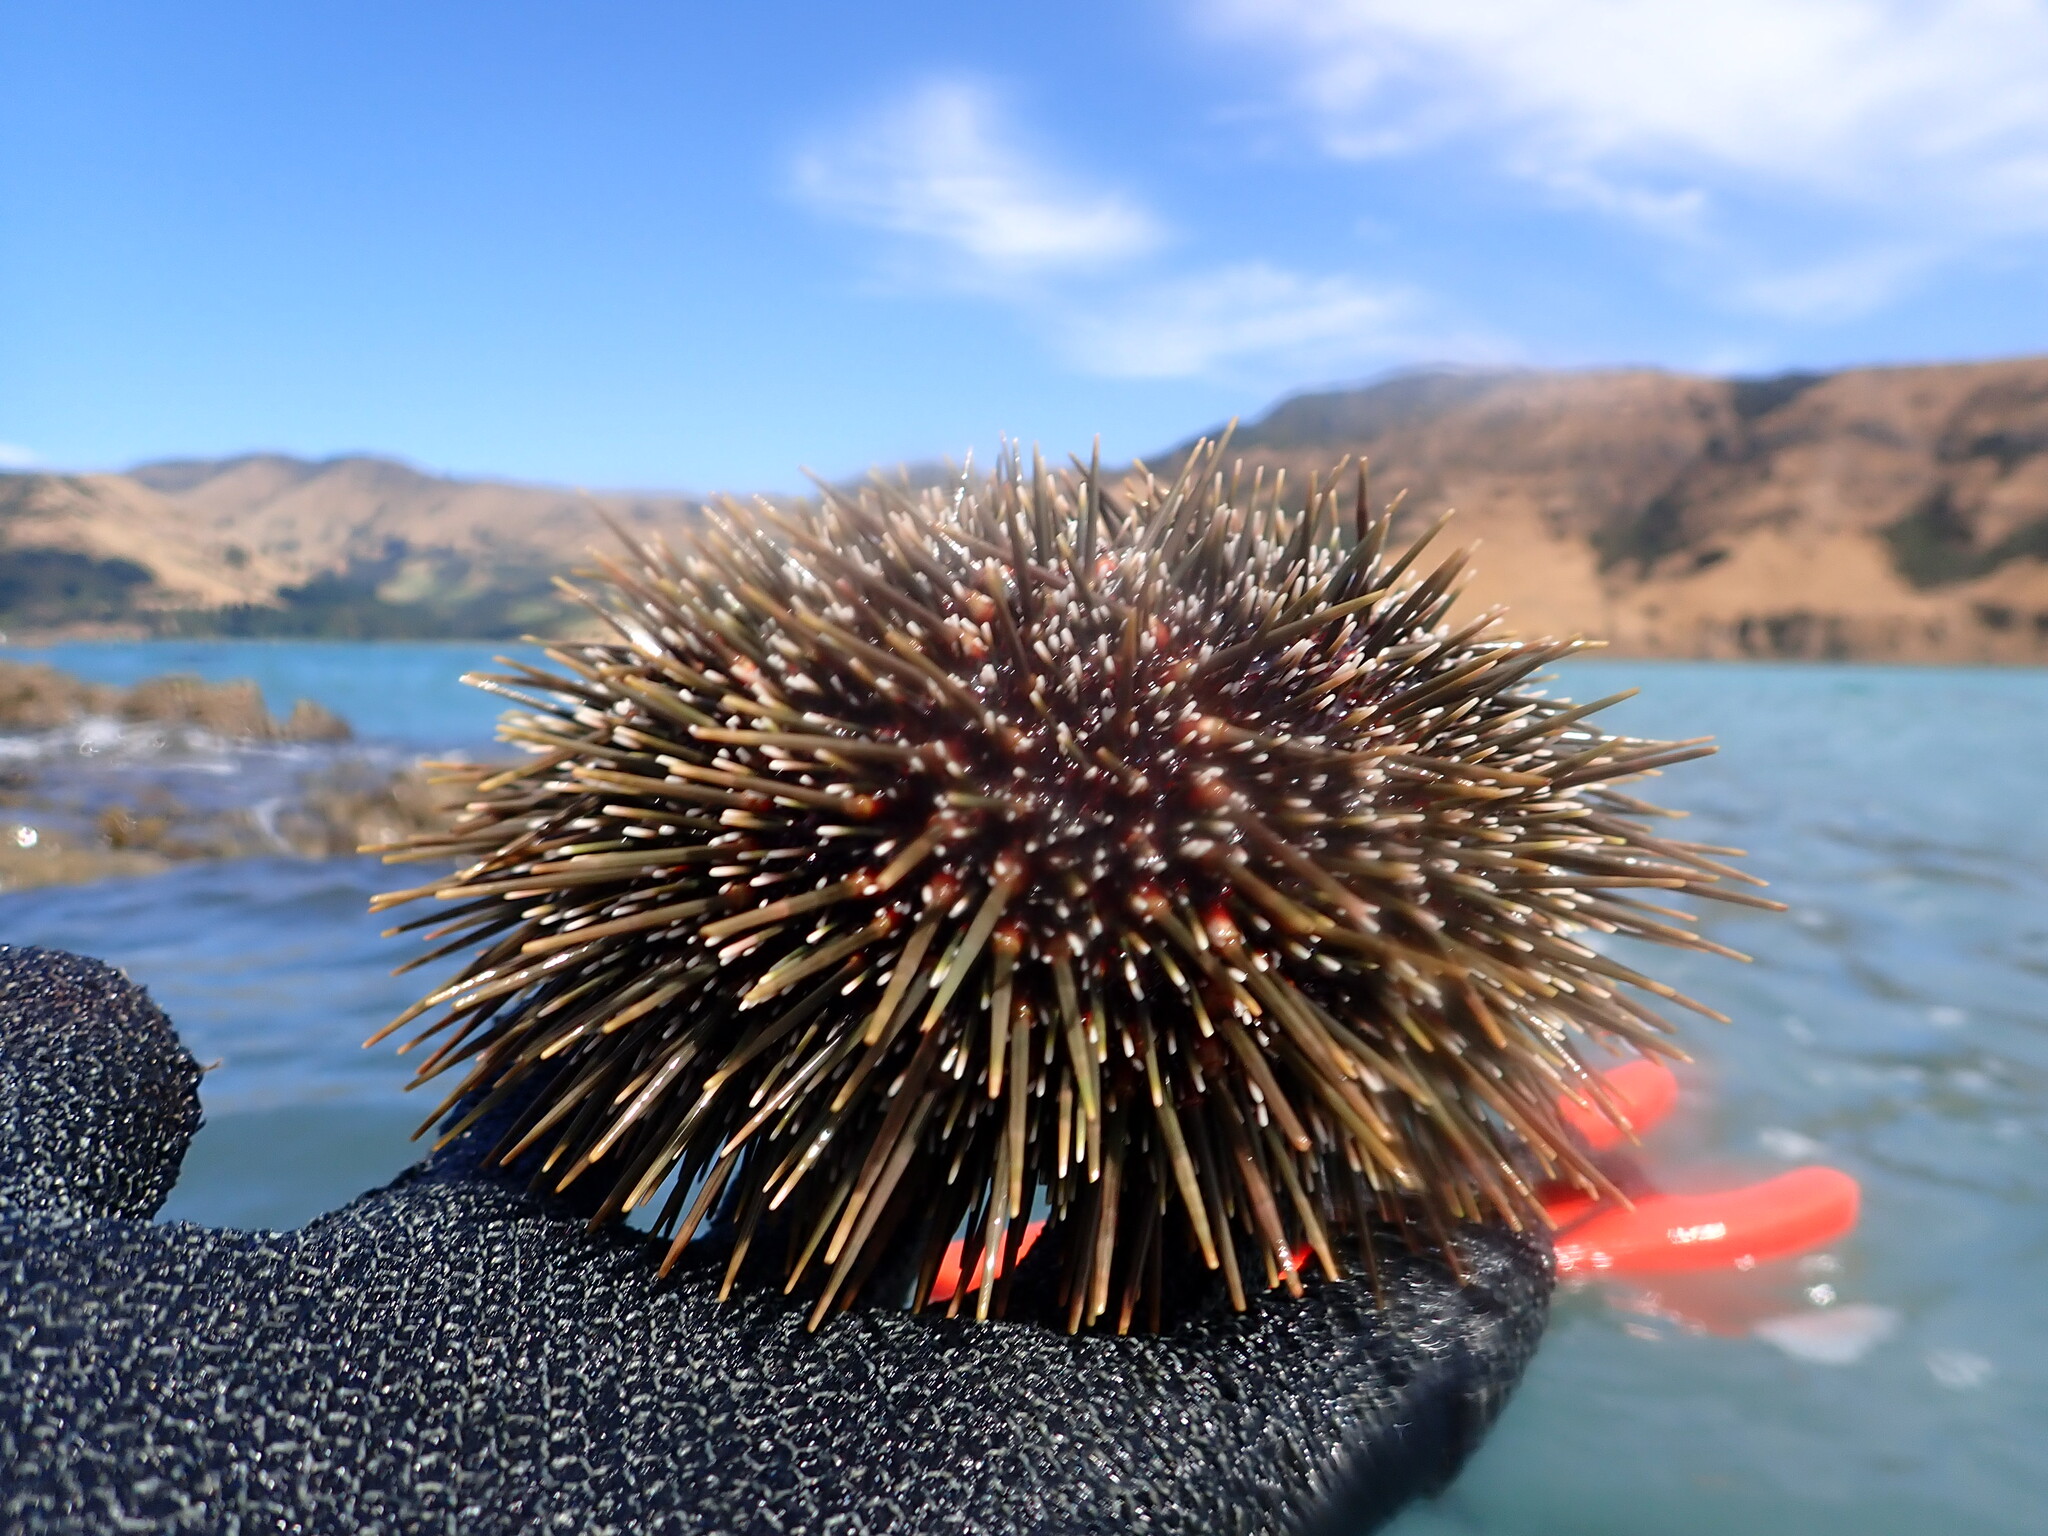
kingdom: Animalia
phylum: Echinodermata
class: Echinoidea
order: Camarodonta
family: Echinometridae
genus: Evechinus
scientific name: Evechinus chloroticus
